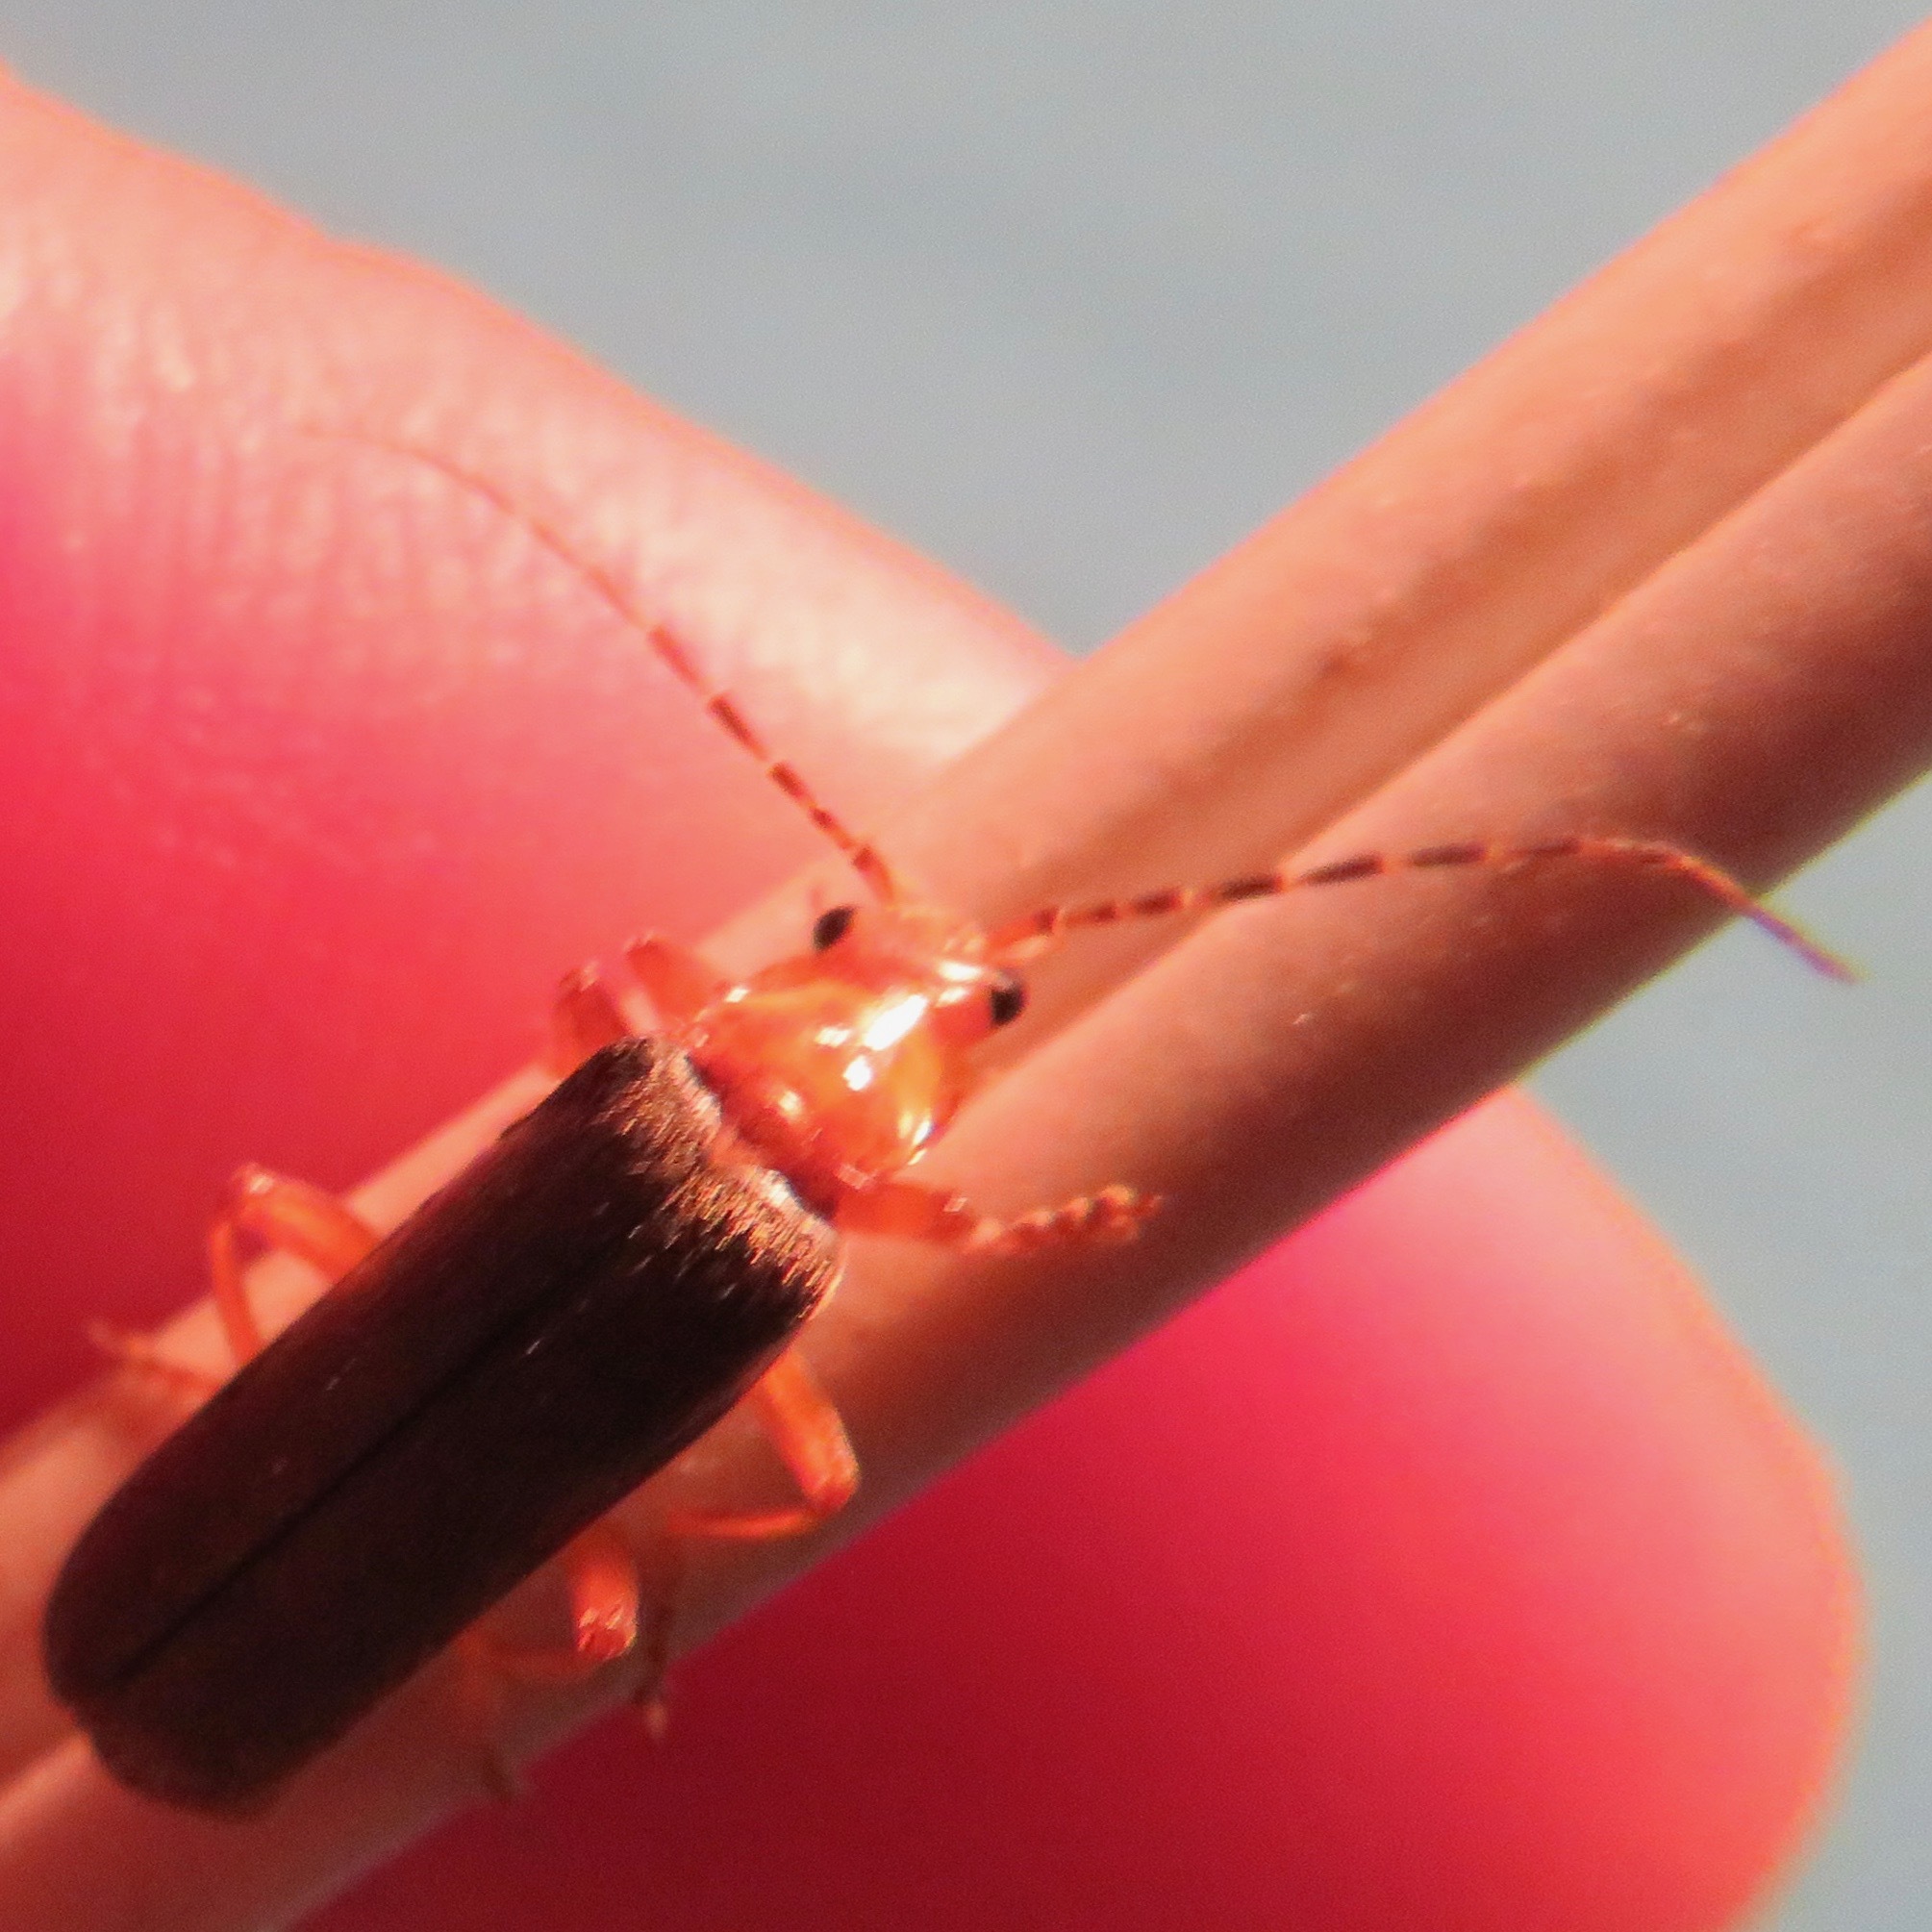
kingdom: Animalia
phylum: Arthropoda
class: Insecta
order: Coleoptera
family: Cantharidae
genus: Cultellunguis
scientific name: Cultellunguis perpallens
